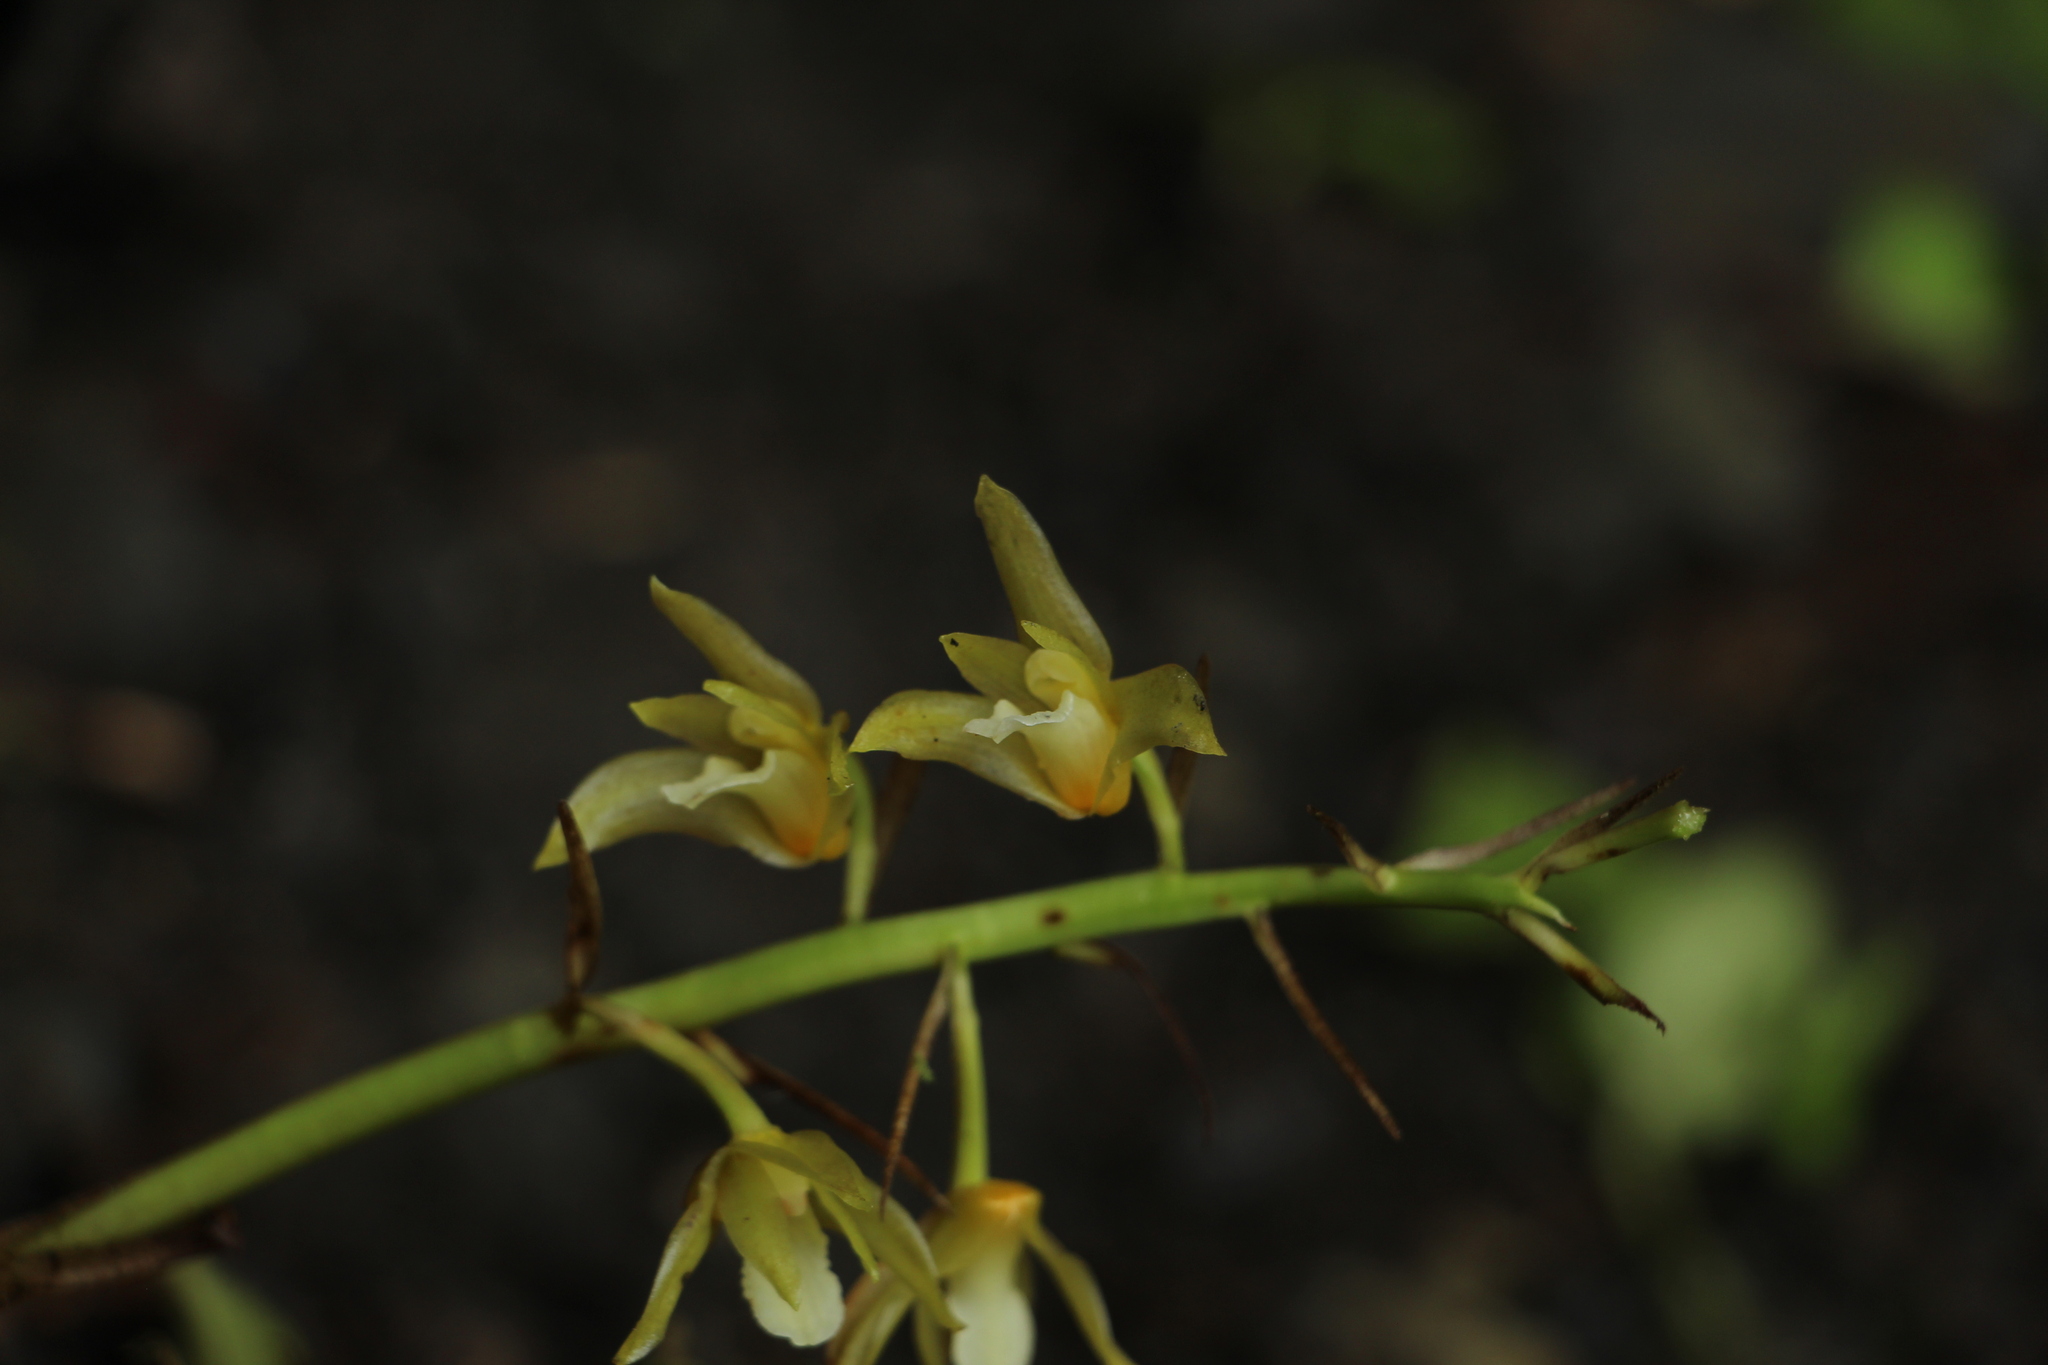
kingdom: Plantae
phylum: Tracheophyta
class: Liliopsida
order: Asparagales
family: Orchidaceae
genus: Xylobium
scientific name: Xylobium pallidiflorum
